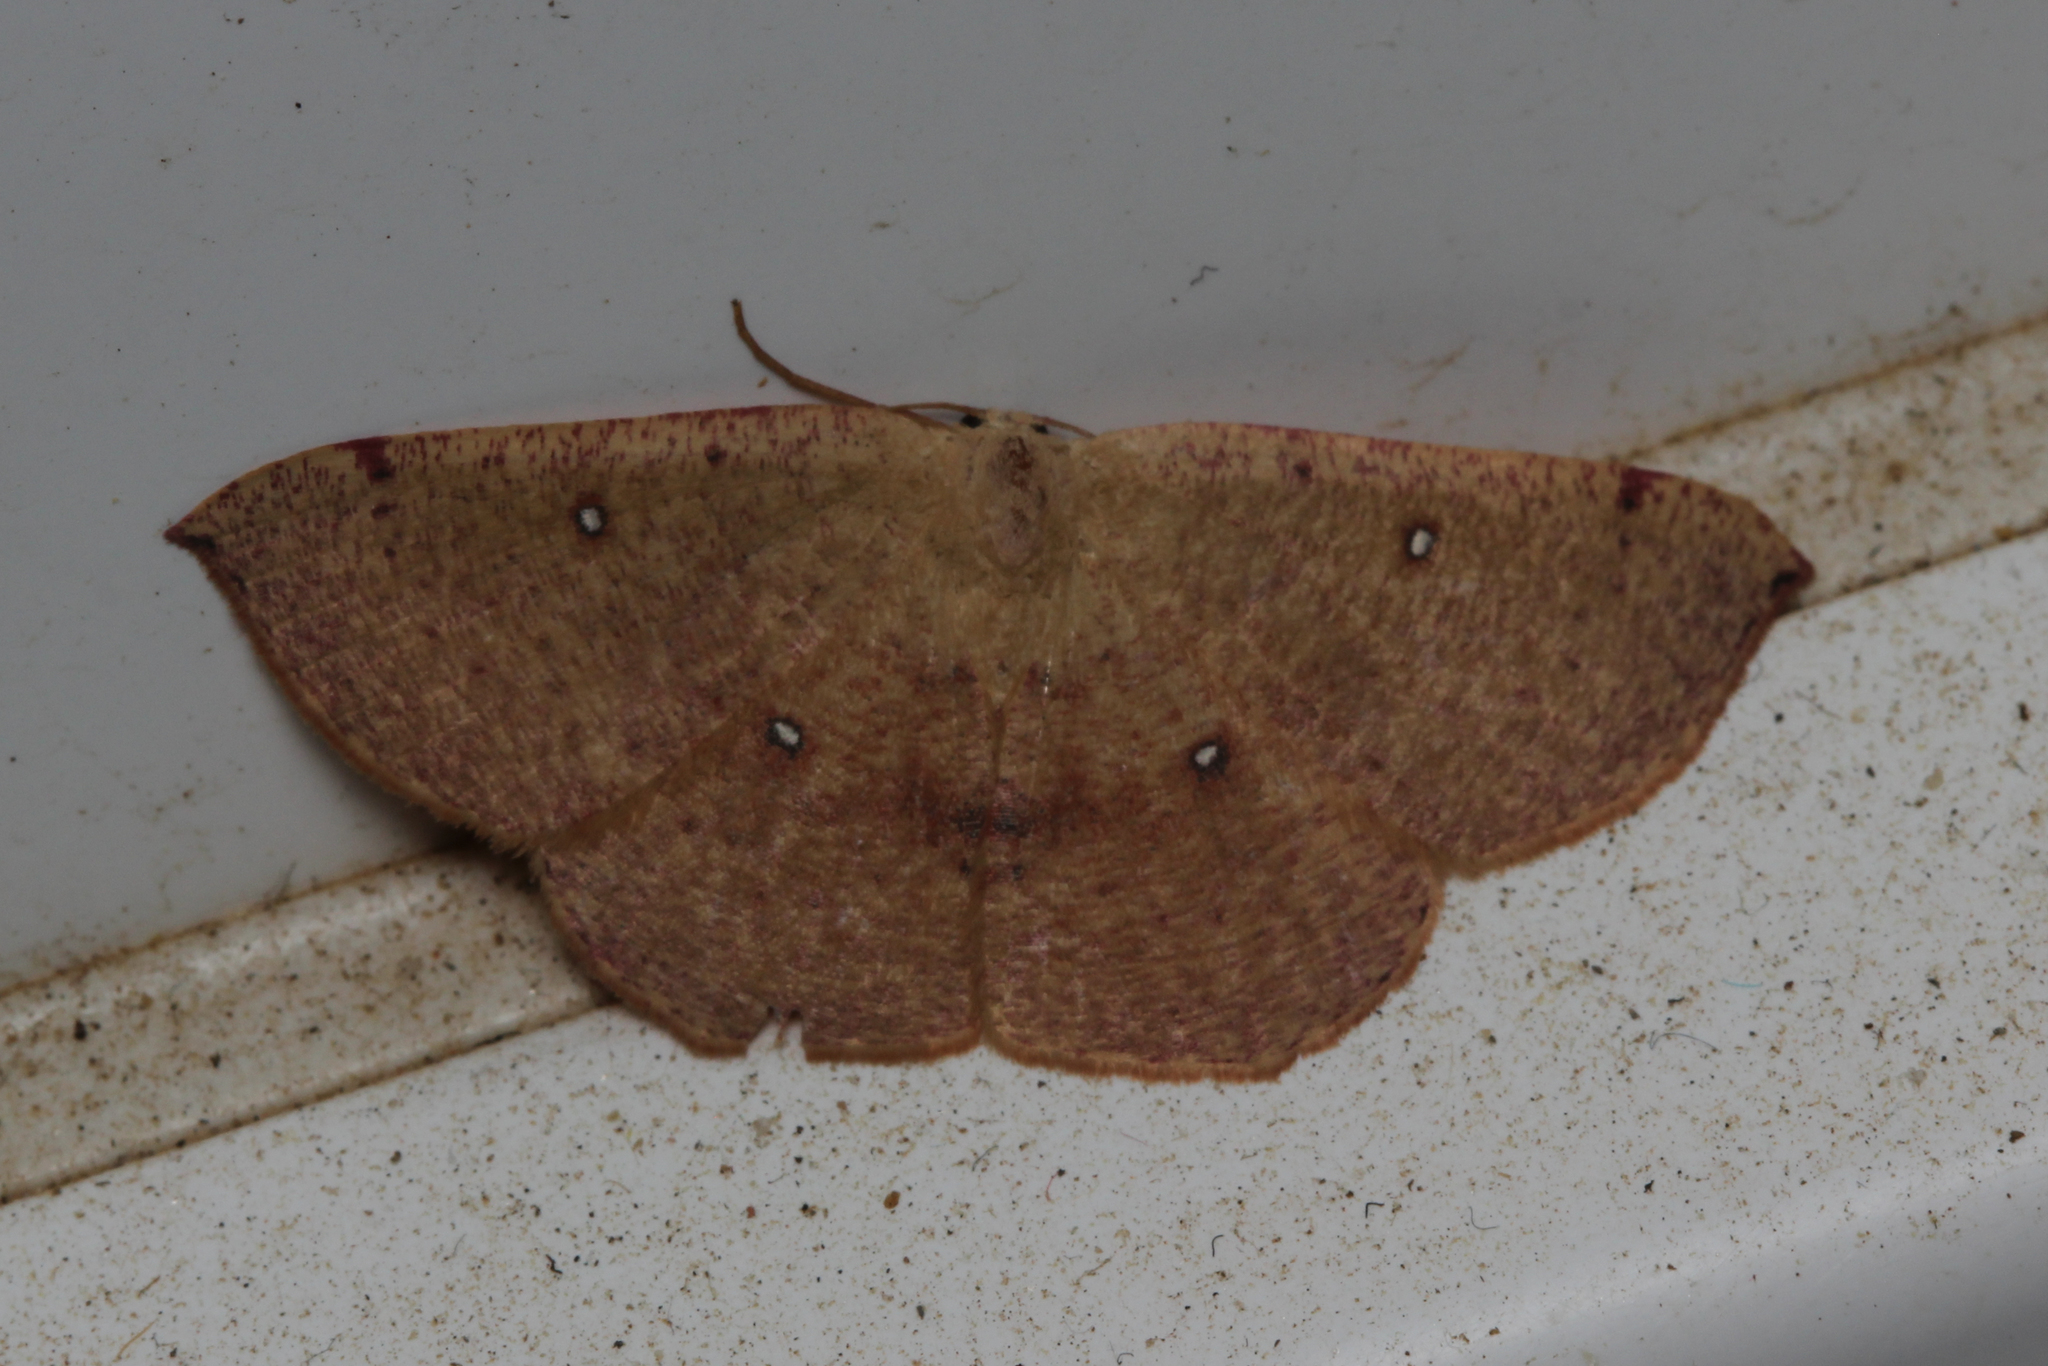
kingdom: Animalia
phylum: Arthropoda
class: Insecta
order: Lepidoptera
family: Geometridae
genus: Cyclophora
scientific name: Cyclophora puppillaria
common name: Blair's mocha
